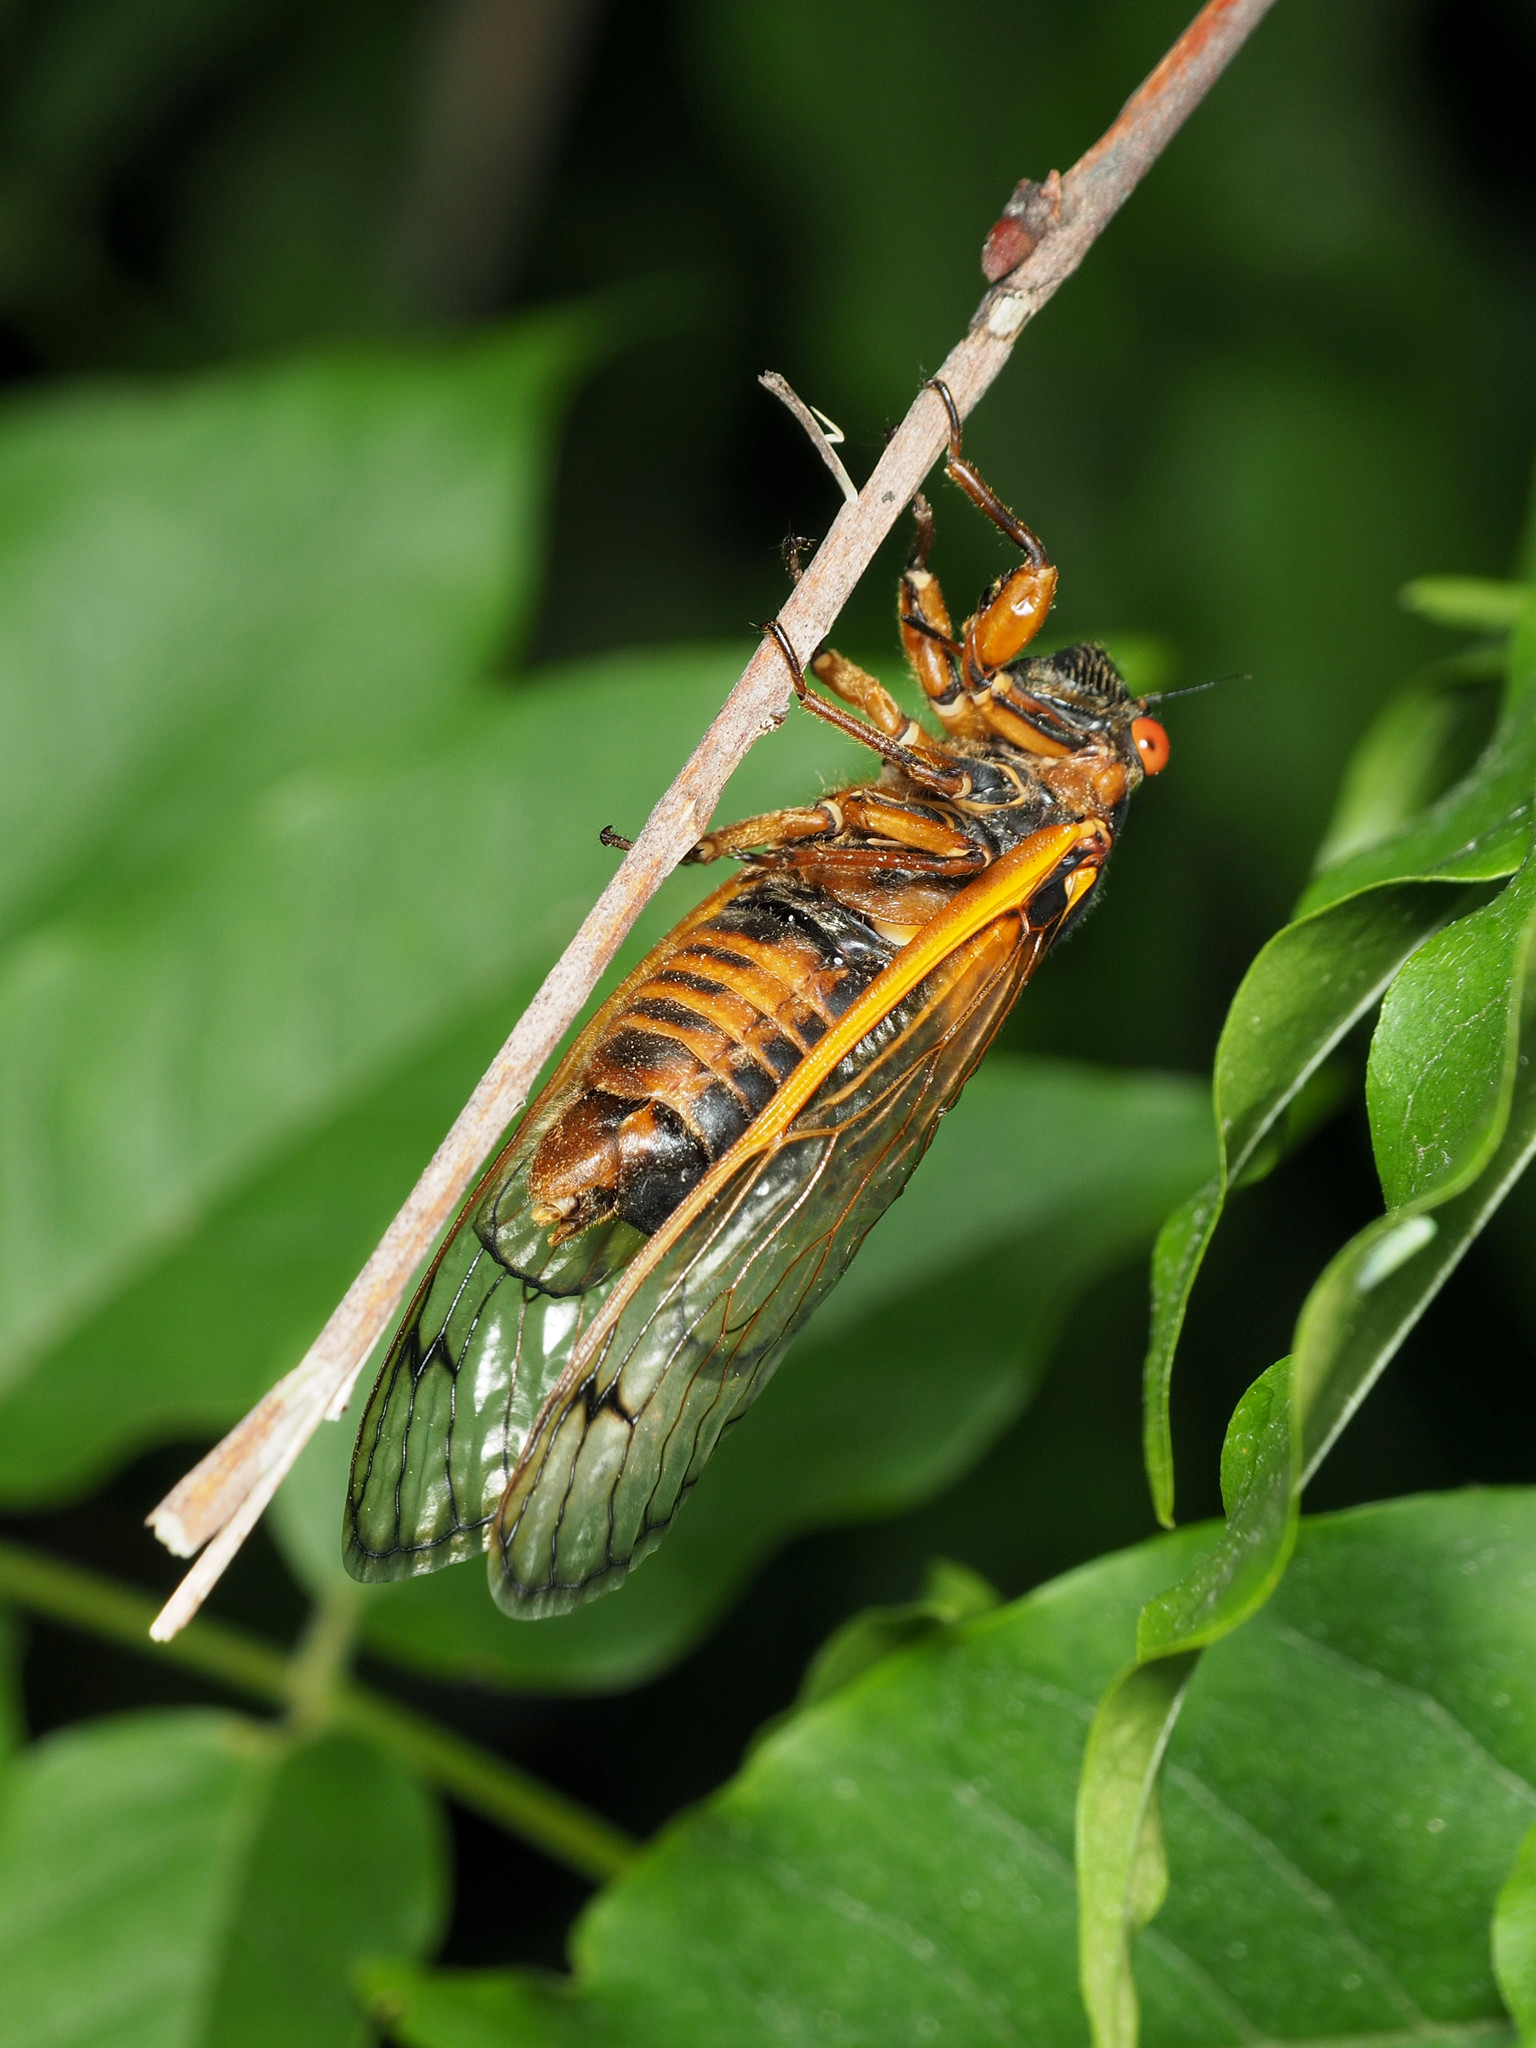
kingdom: Animalia
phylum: Arthropoda
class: Insecta
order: Hemiptera
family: Cicadidae
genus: Magicicada
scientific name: Magicicada septendecim
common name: Periodical cicada
